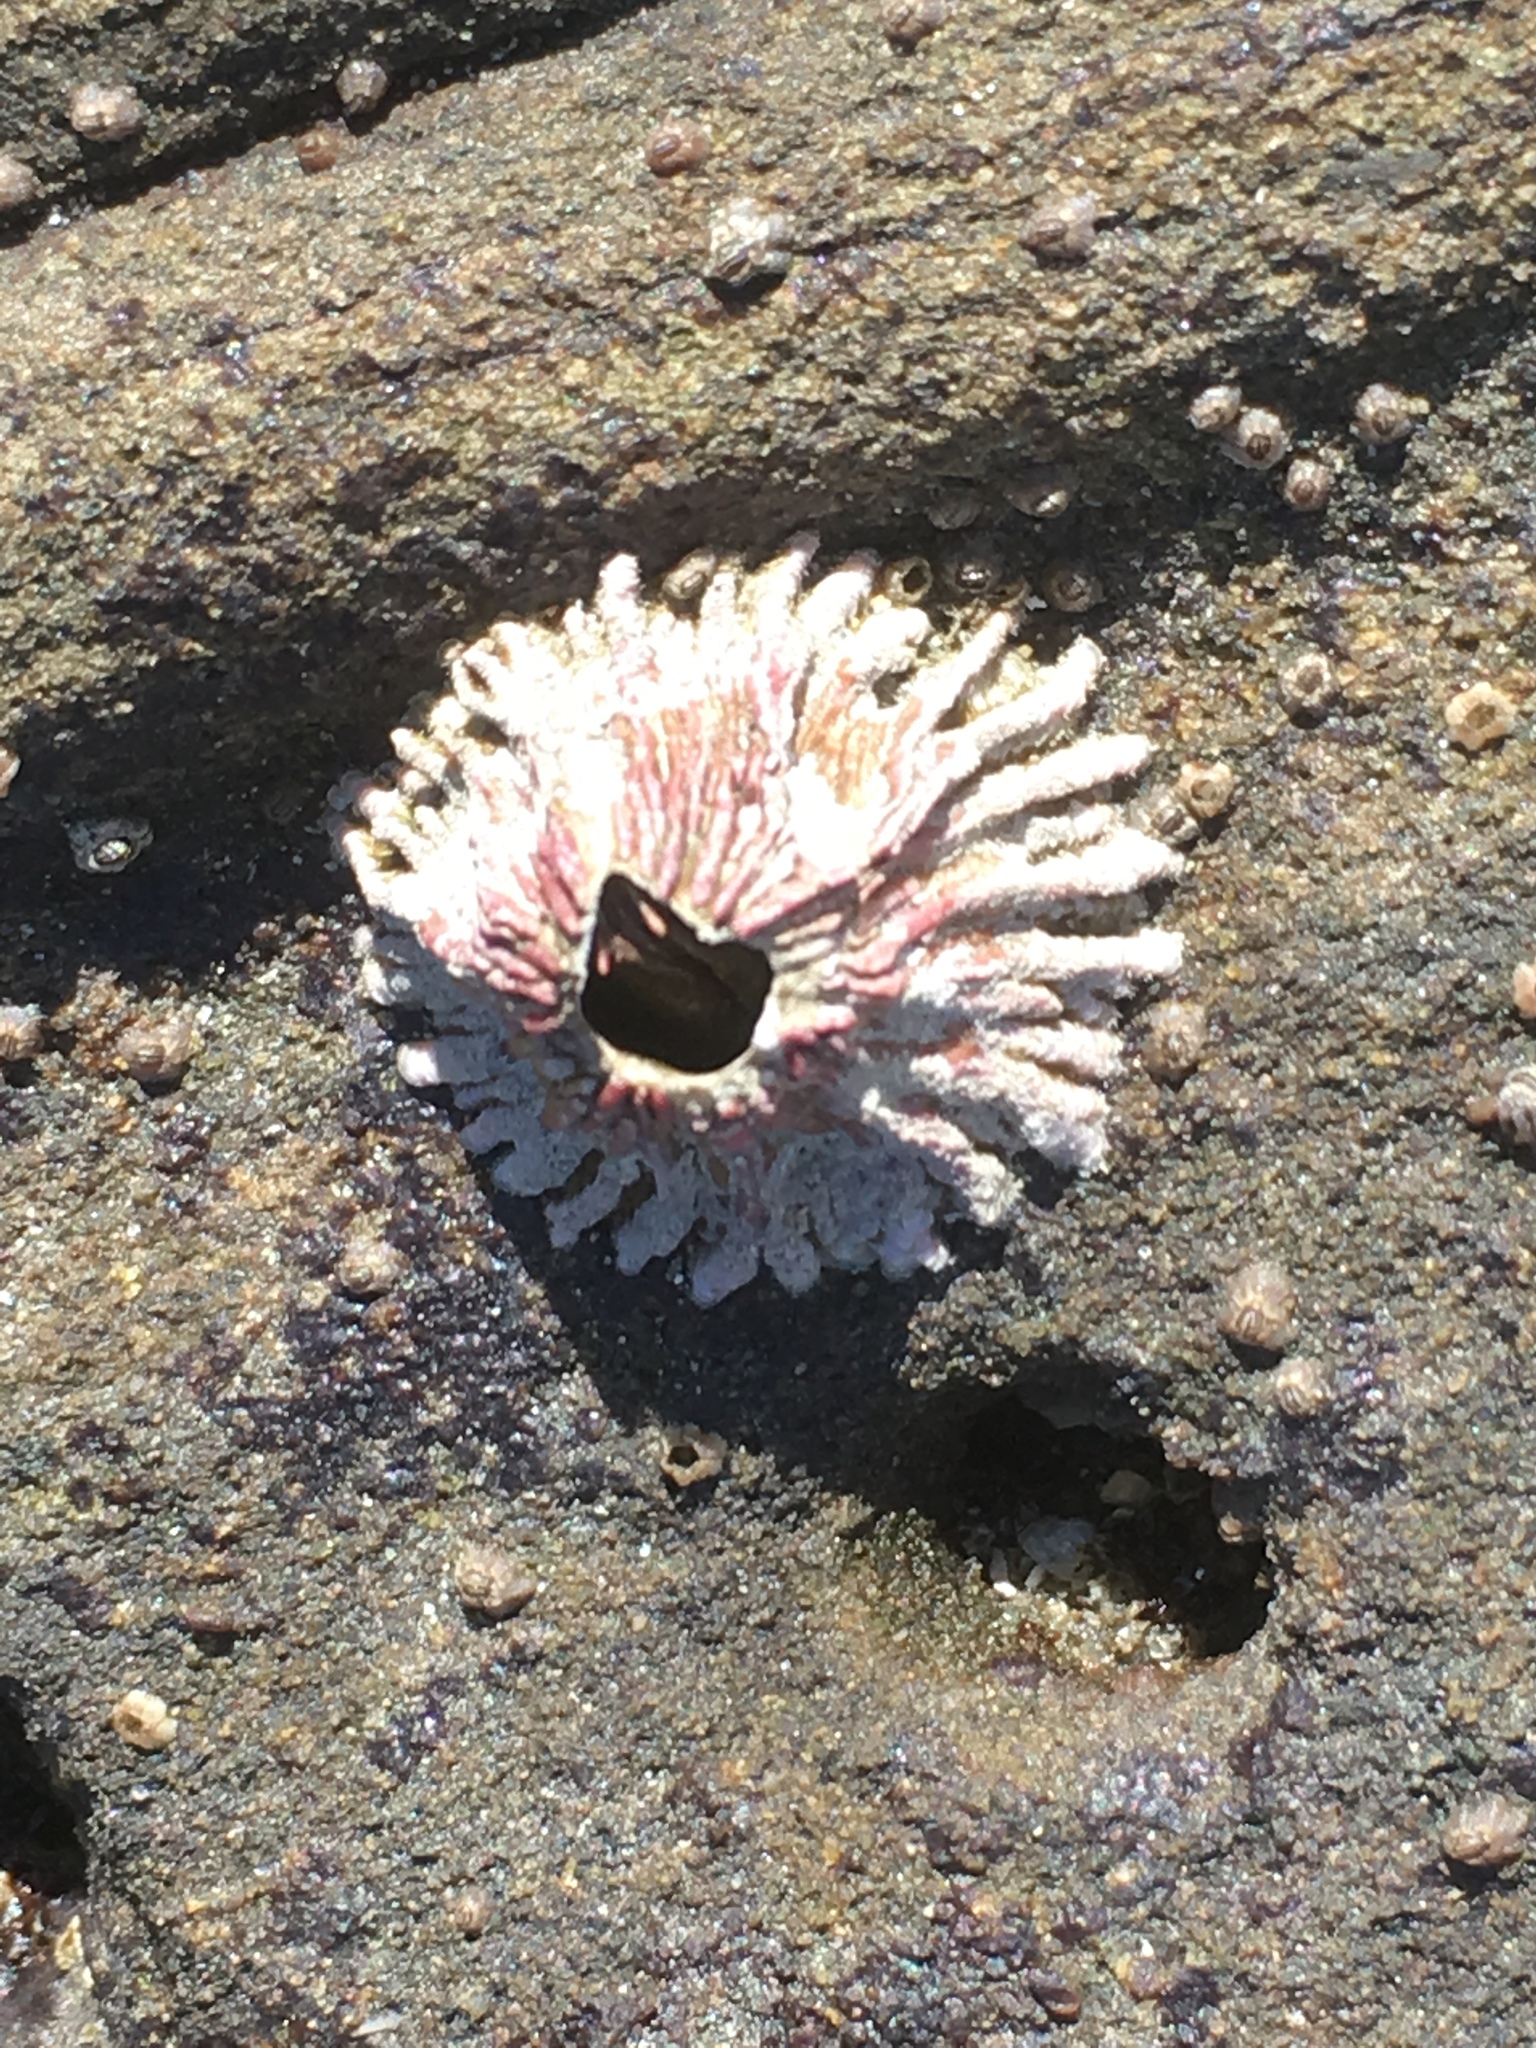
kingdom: Animalia
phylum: Arthropoda
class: Maxillopoda
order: Sessilia
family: Tetraclitidae
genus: Tetraclita
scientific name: Tetraclita rubescens
